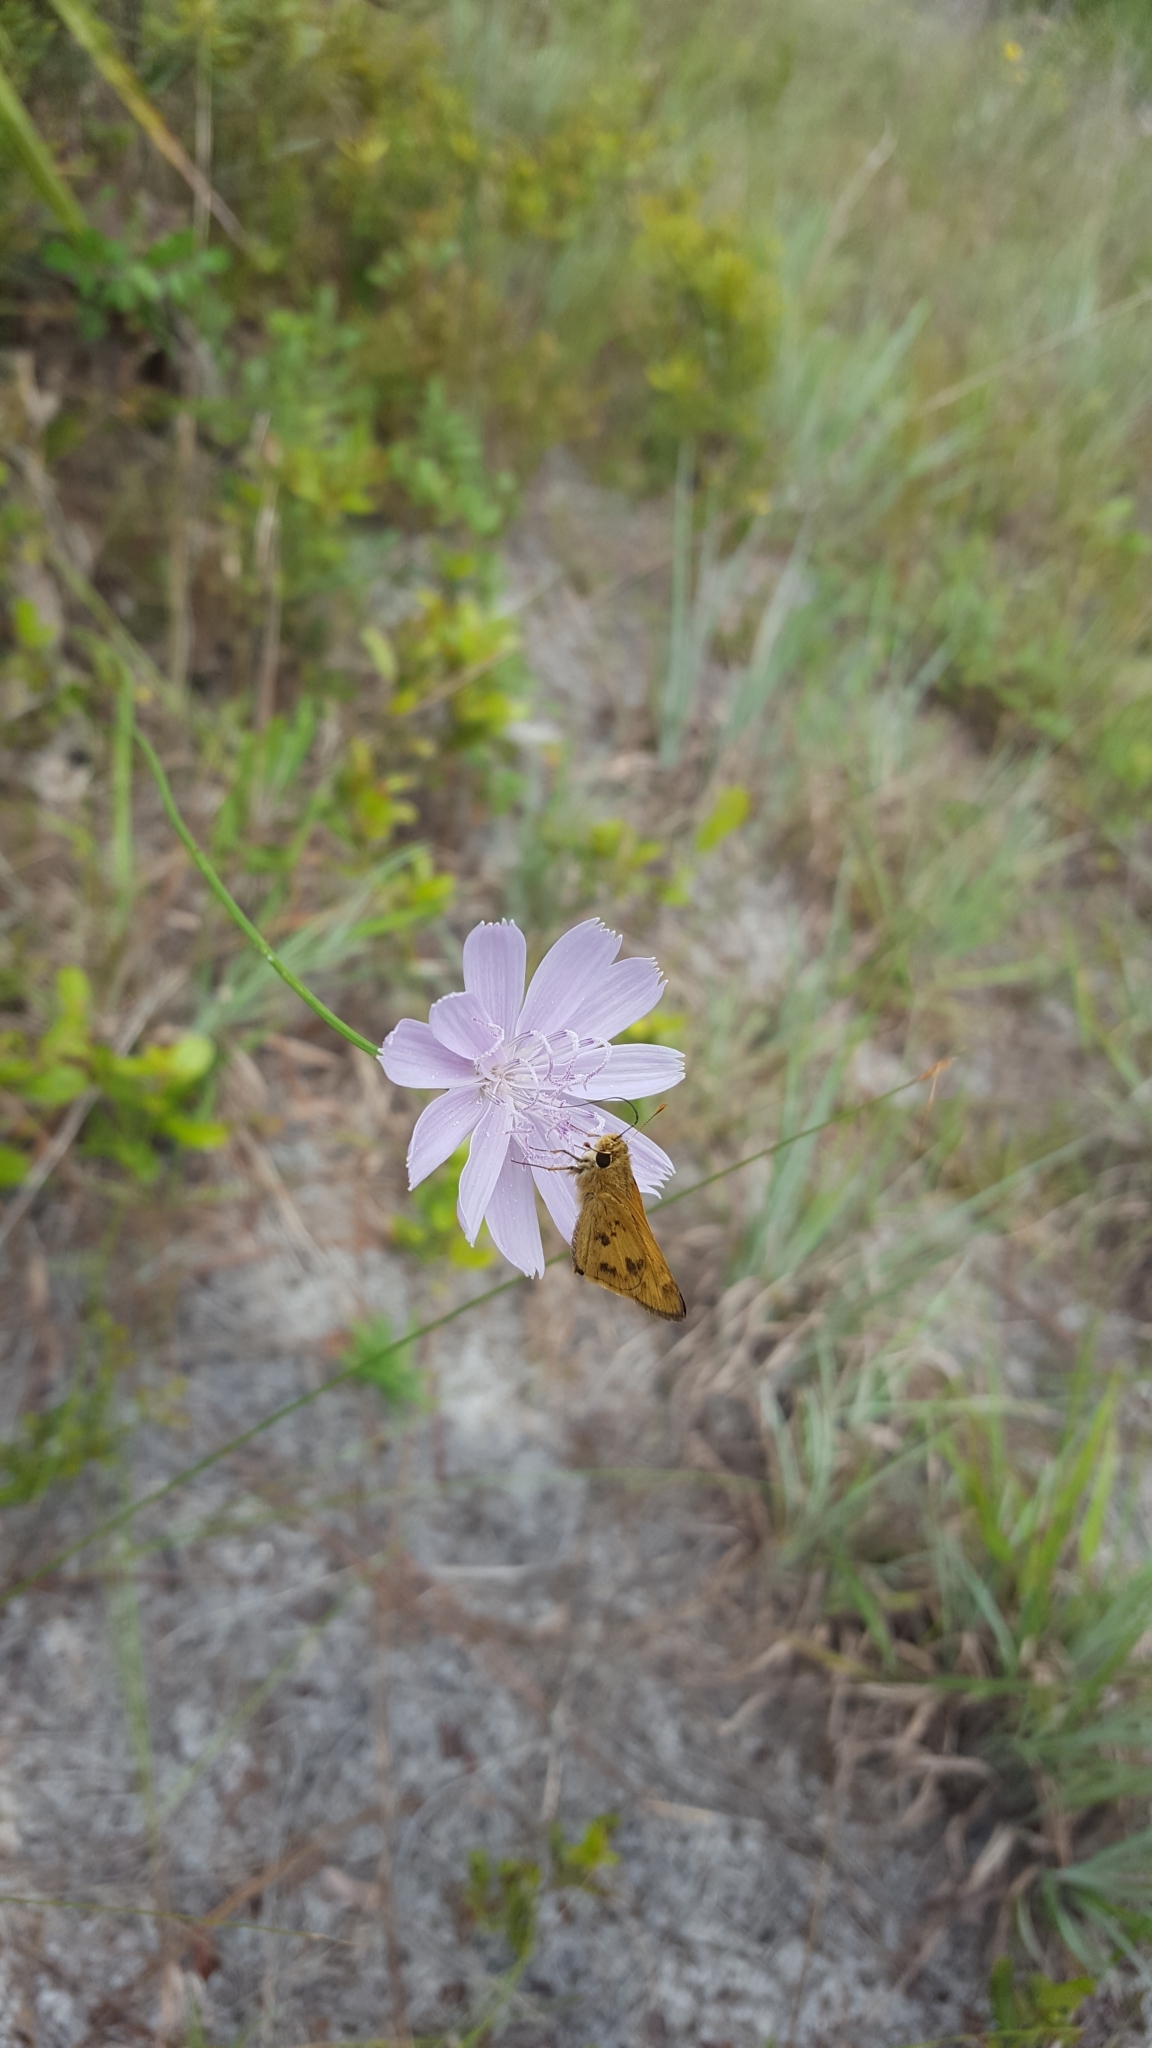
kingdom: Animalia
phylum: Arthropoda
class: Insecta
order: Lepidoptera
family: Hesperiidae
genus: Polites
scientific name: Polites vibex
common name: Whirlabout
